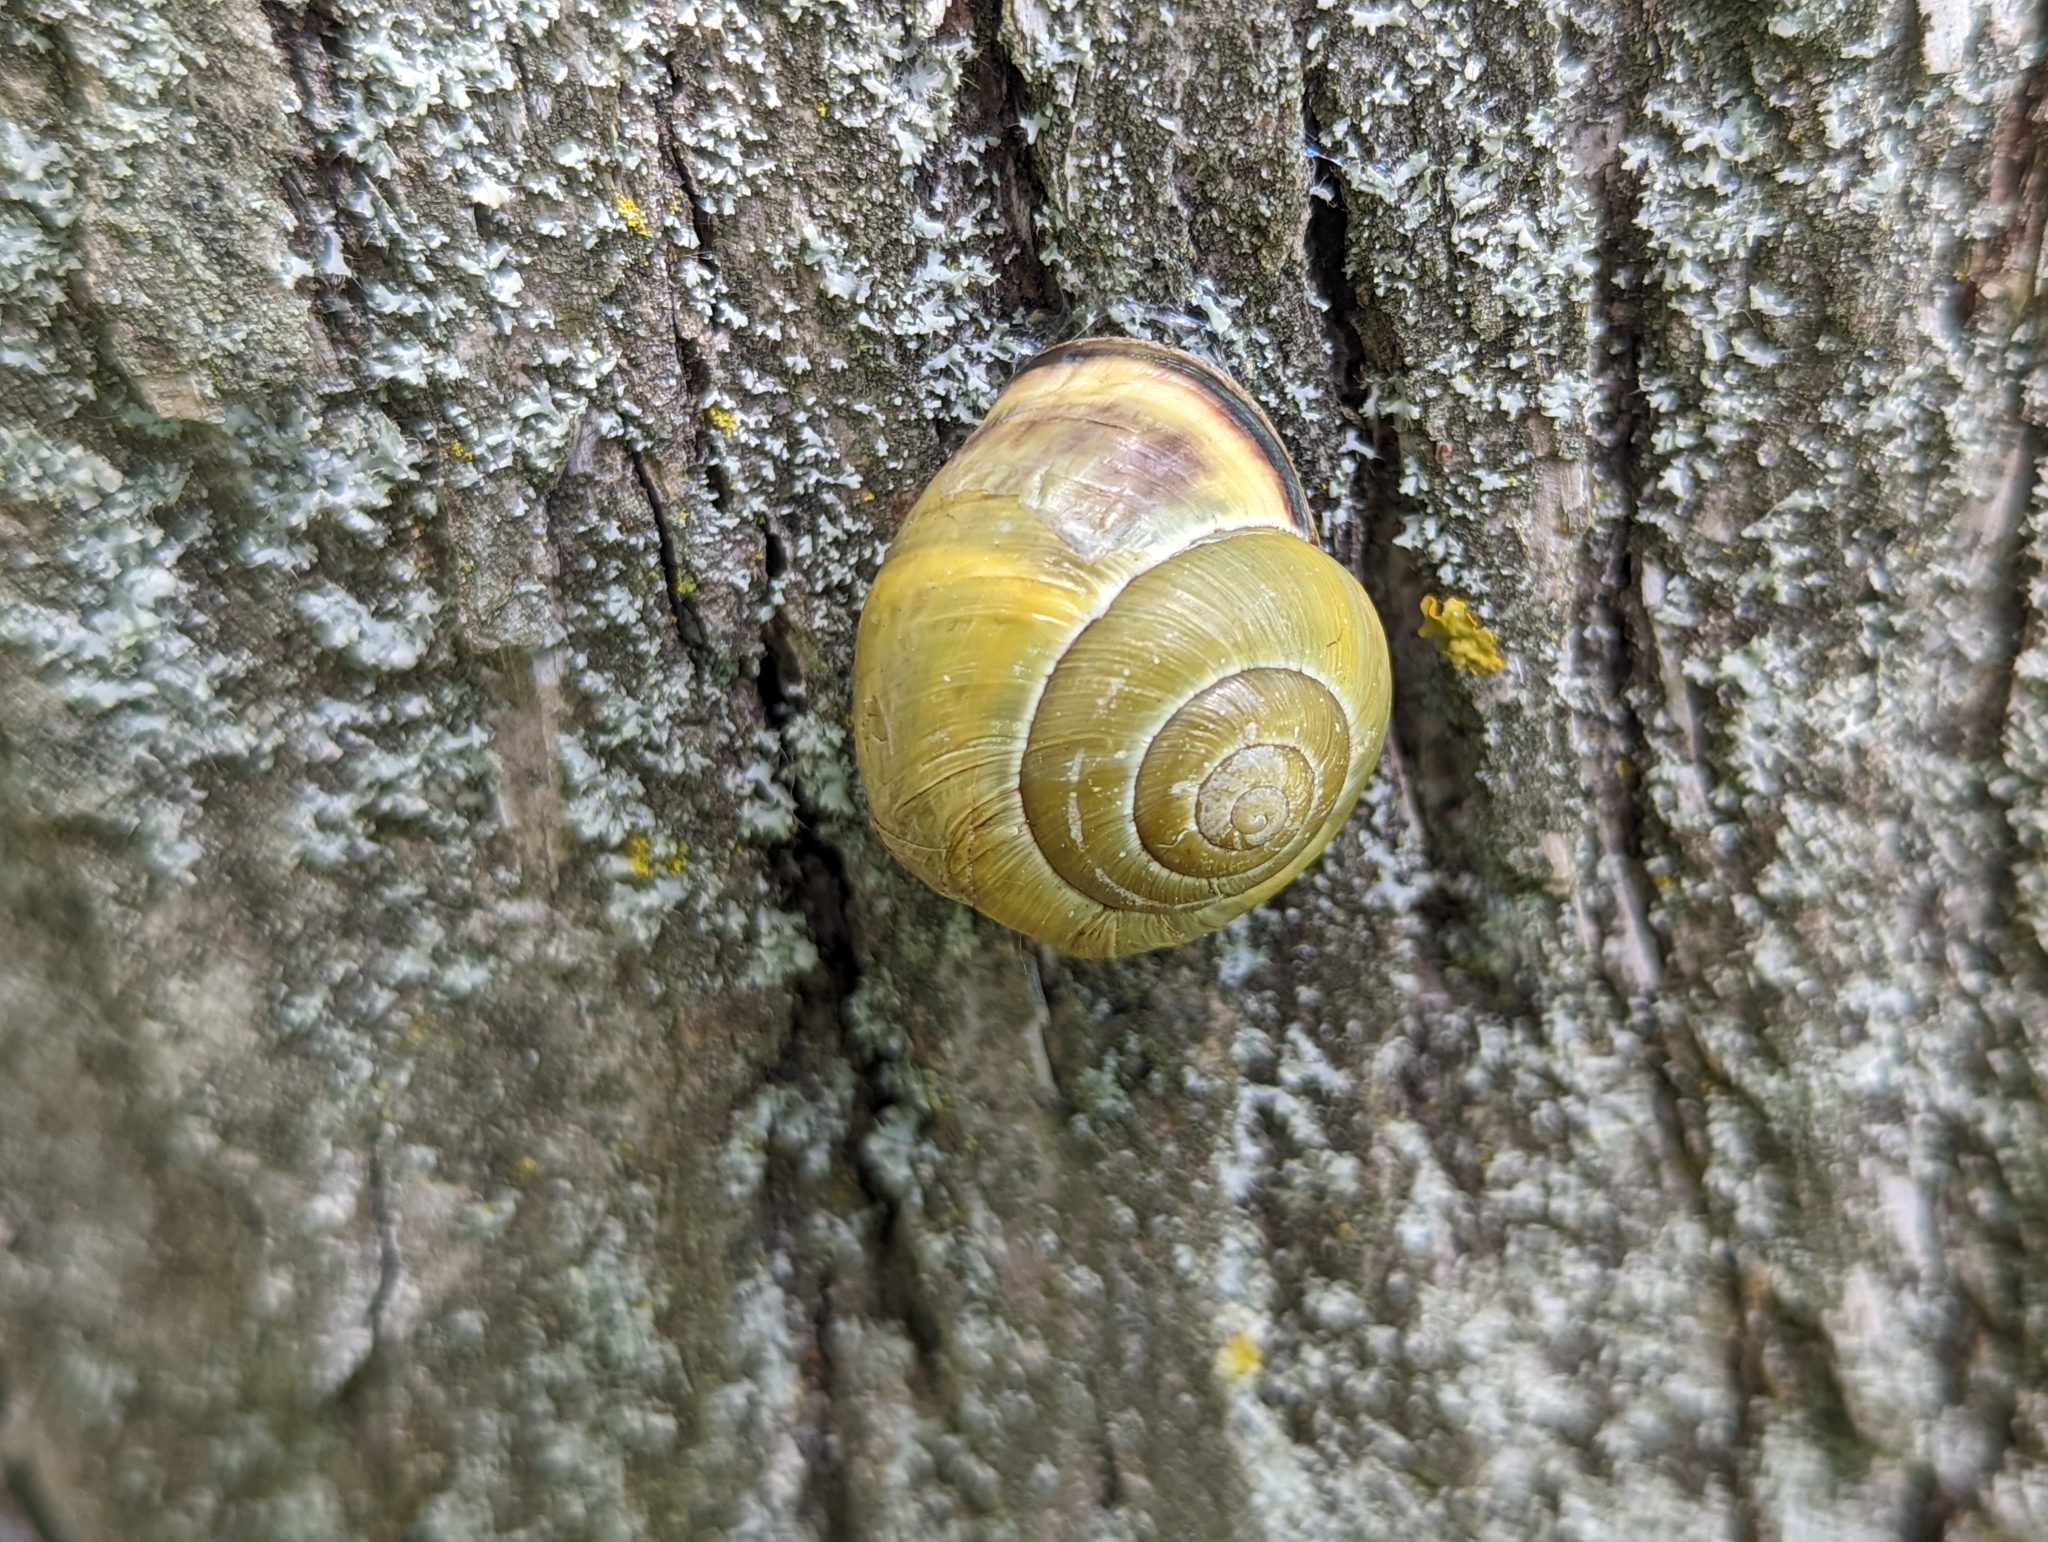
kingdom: Animalia
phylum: Mollusca
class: Gastropoda
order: Stylommatophora
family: Helicidae
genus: Cepaea
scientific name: Cepaea nemoralis
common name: Grovesnail
